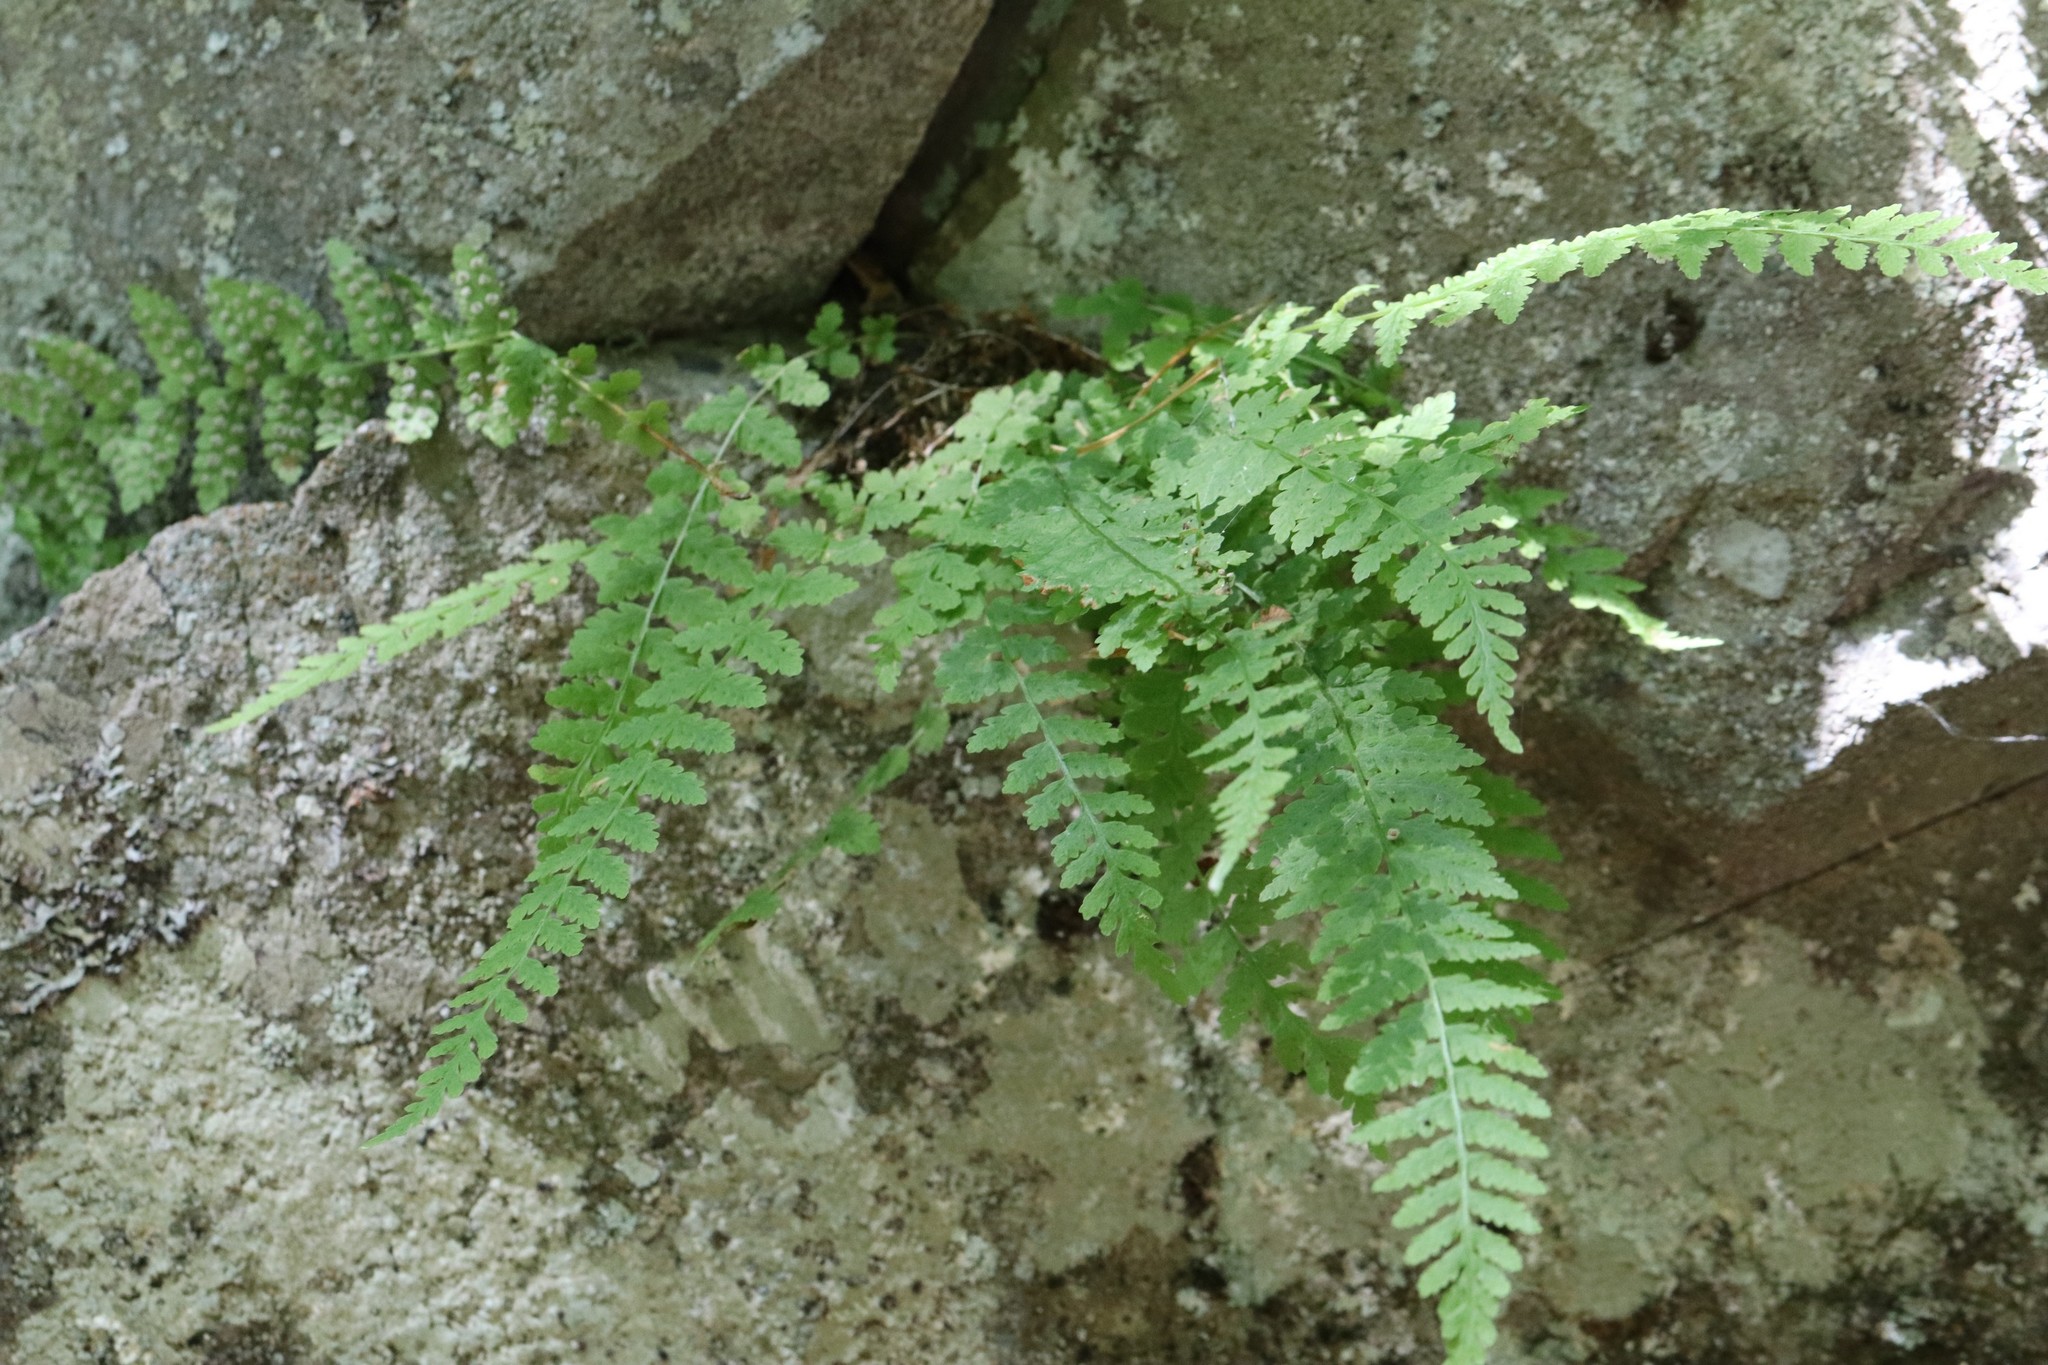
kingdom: Plantae
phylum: Tracheophyta
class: Polypodiopsida
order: Polypodiales
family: Woodsiaceae
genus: Physematium
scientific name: Physematium manchuriense
